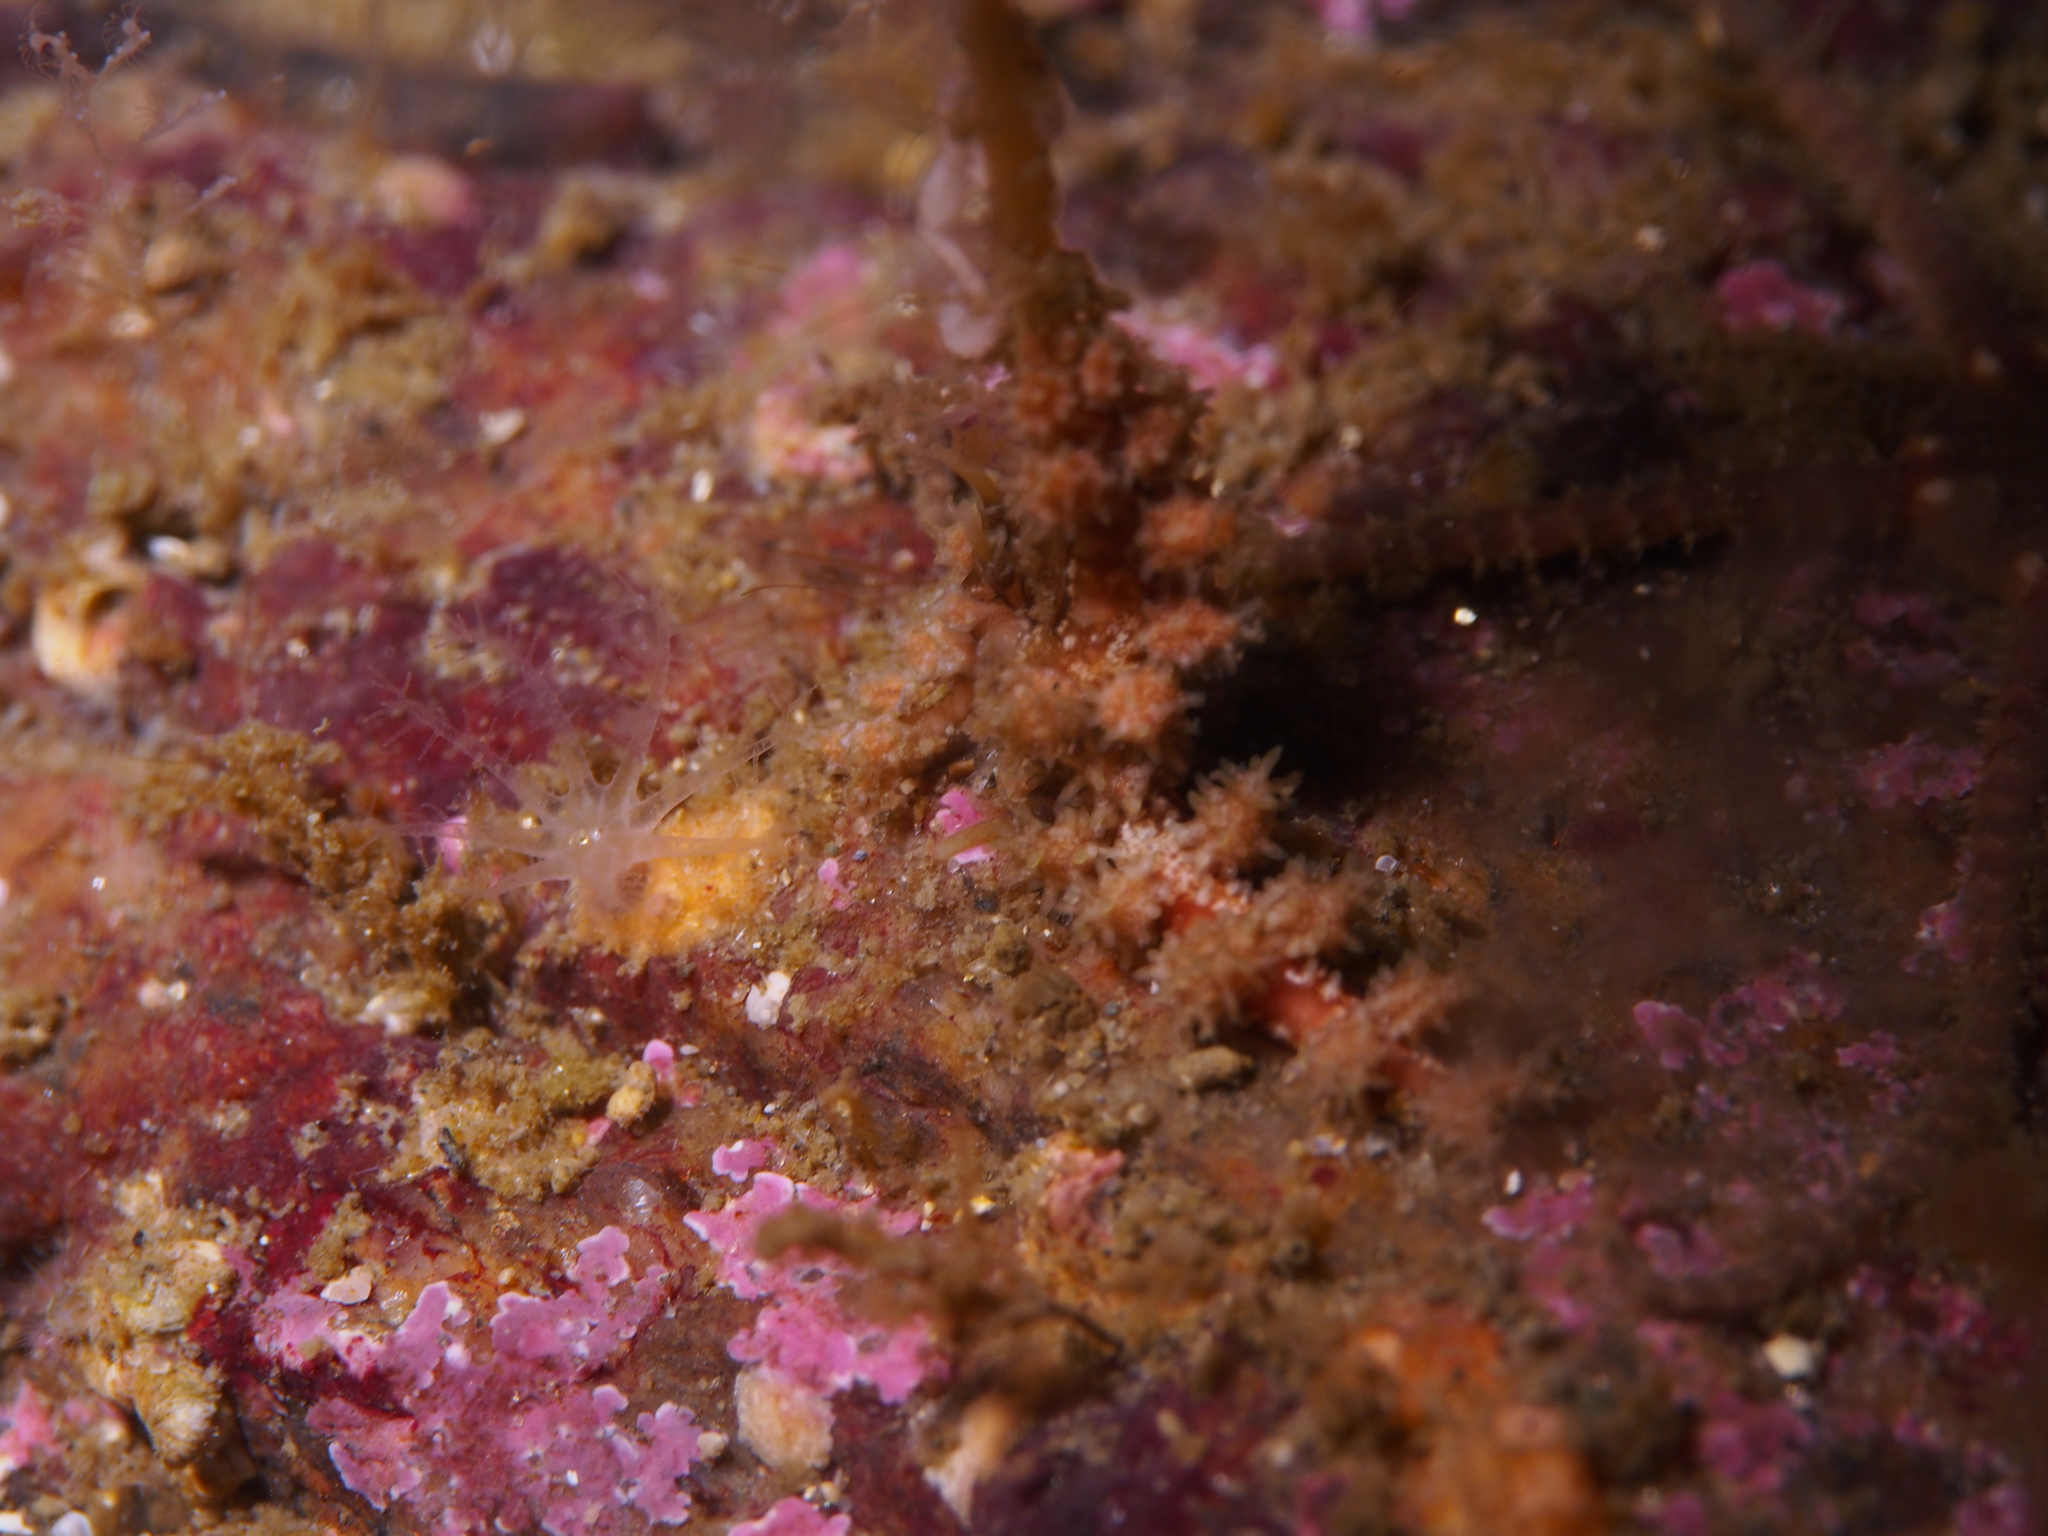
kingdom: Animalia
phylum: Mollusca
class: Gastropoda
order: Nudibranchia
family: Dotidae
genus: Doto
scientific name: Doto hystrix
